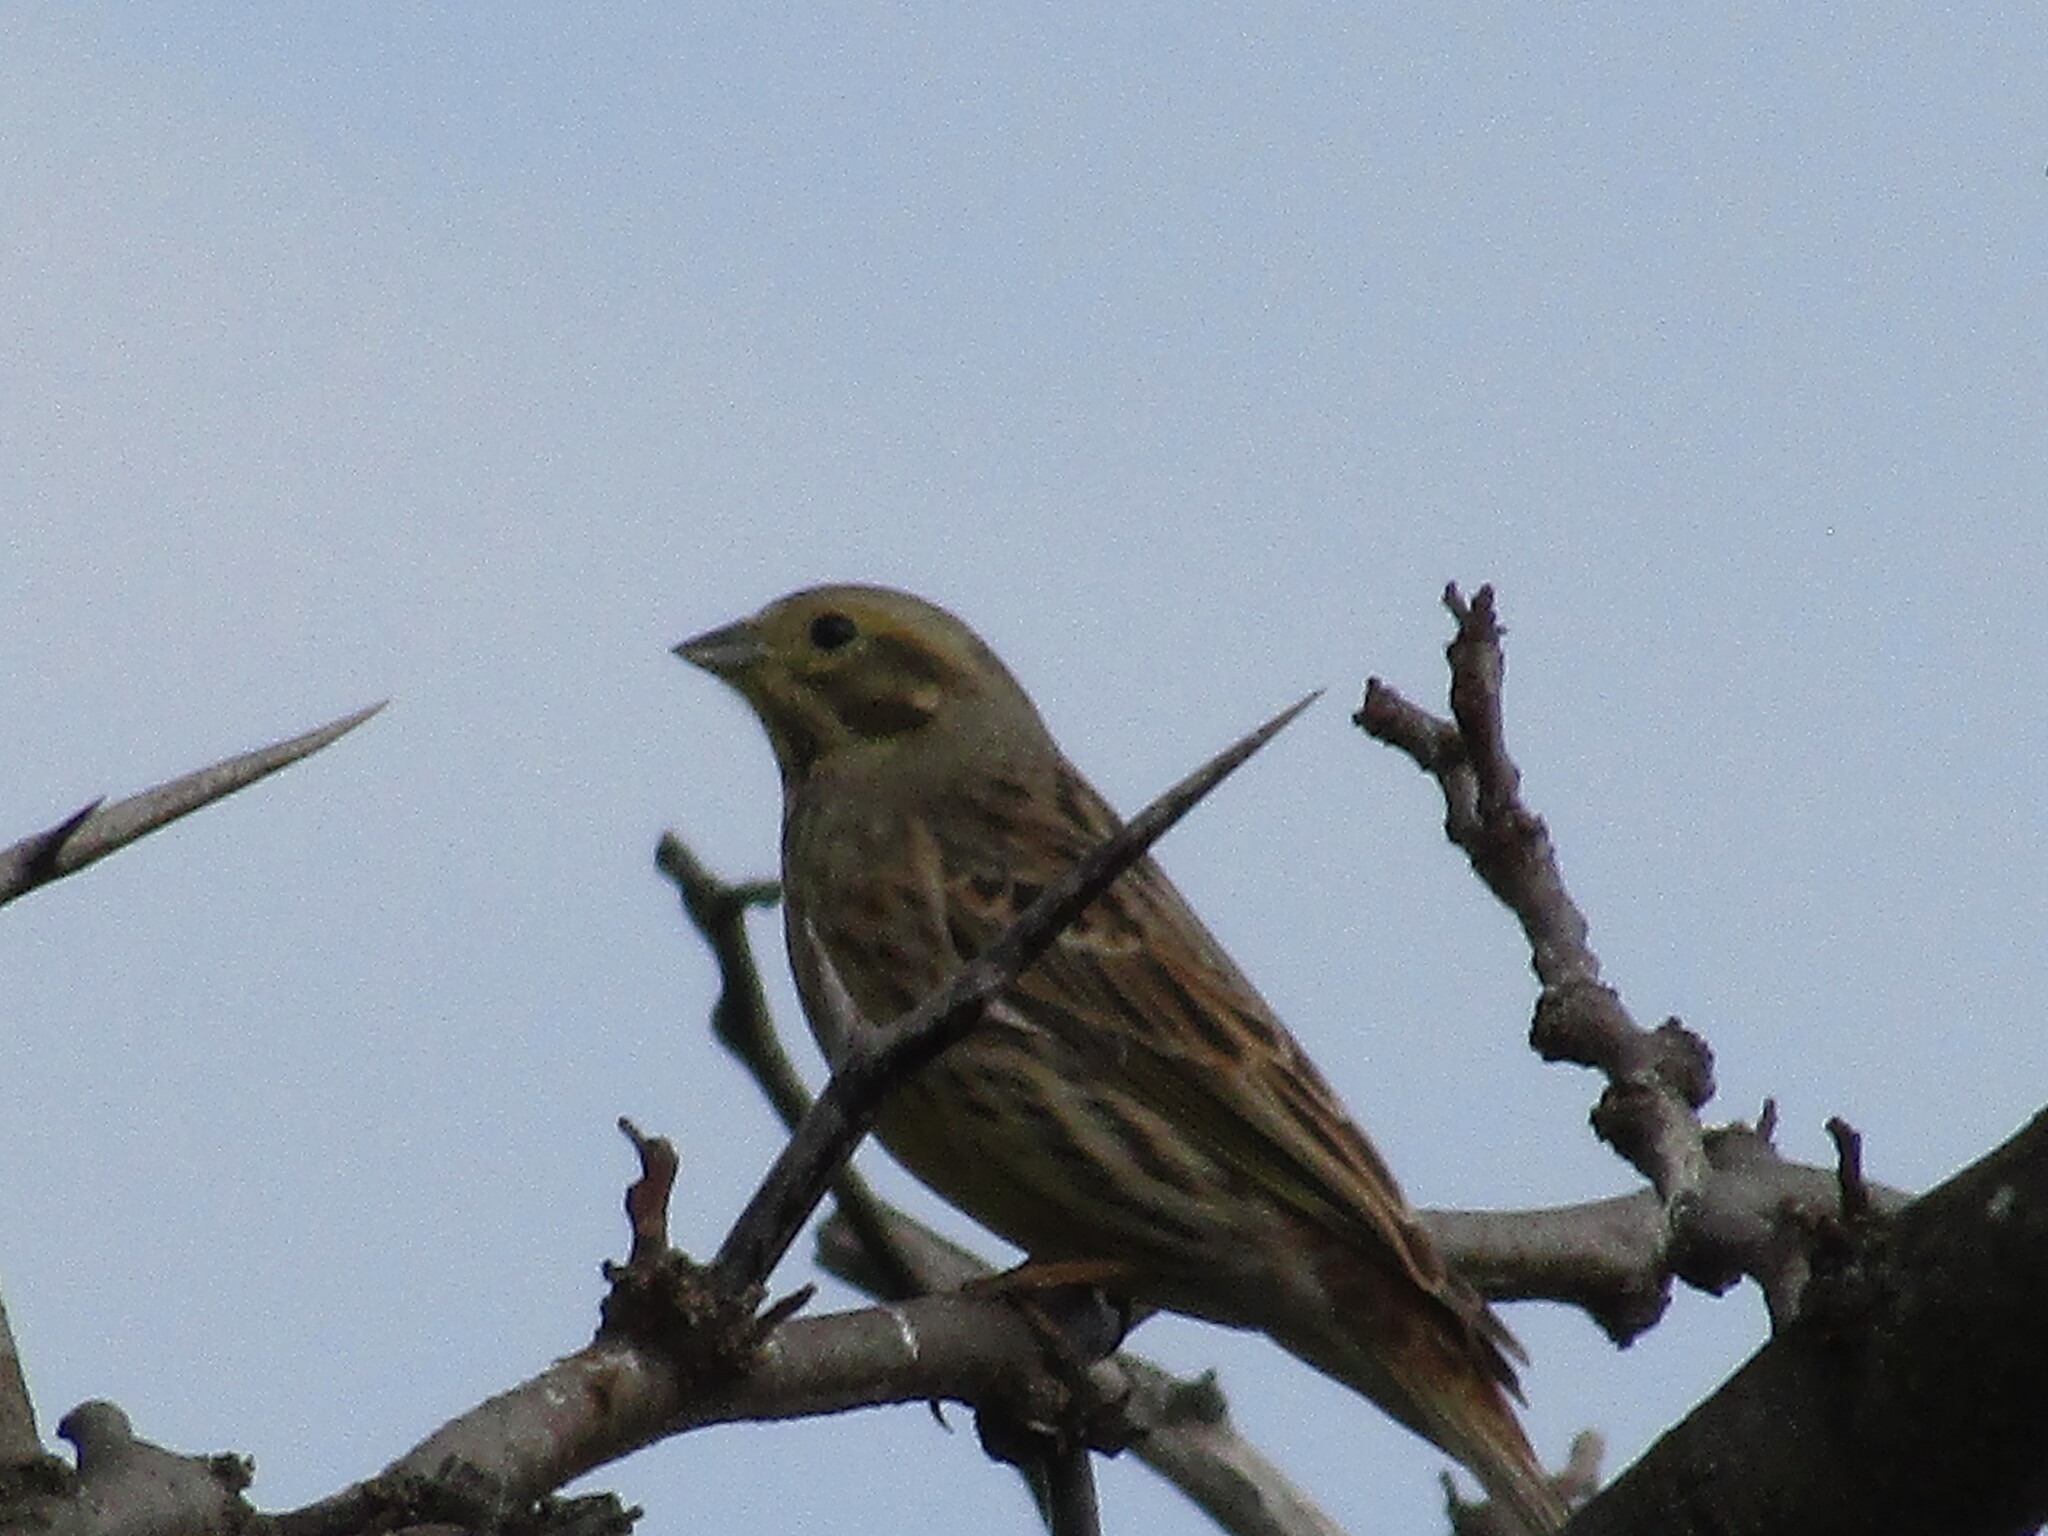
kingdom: Animalia
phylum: Chordata
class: Aves
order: Passeriformes
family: Emberizidae
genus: Emberiza
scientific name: Emberiza citrinella
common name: Yellowhammer
